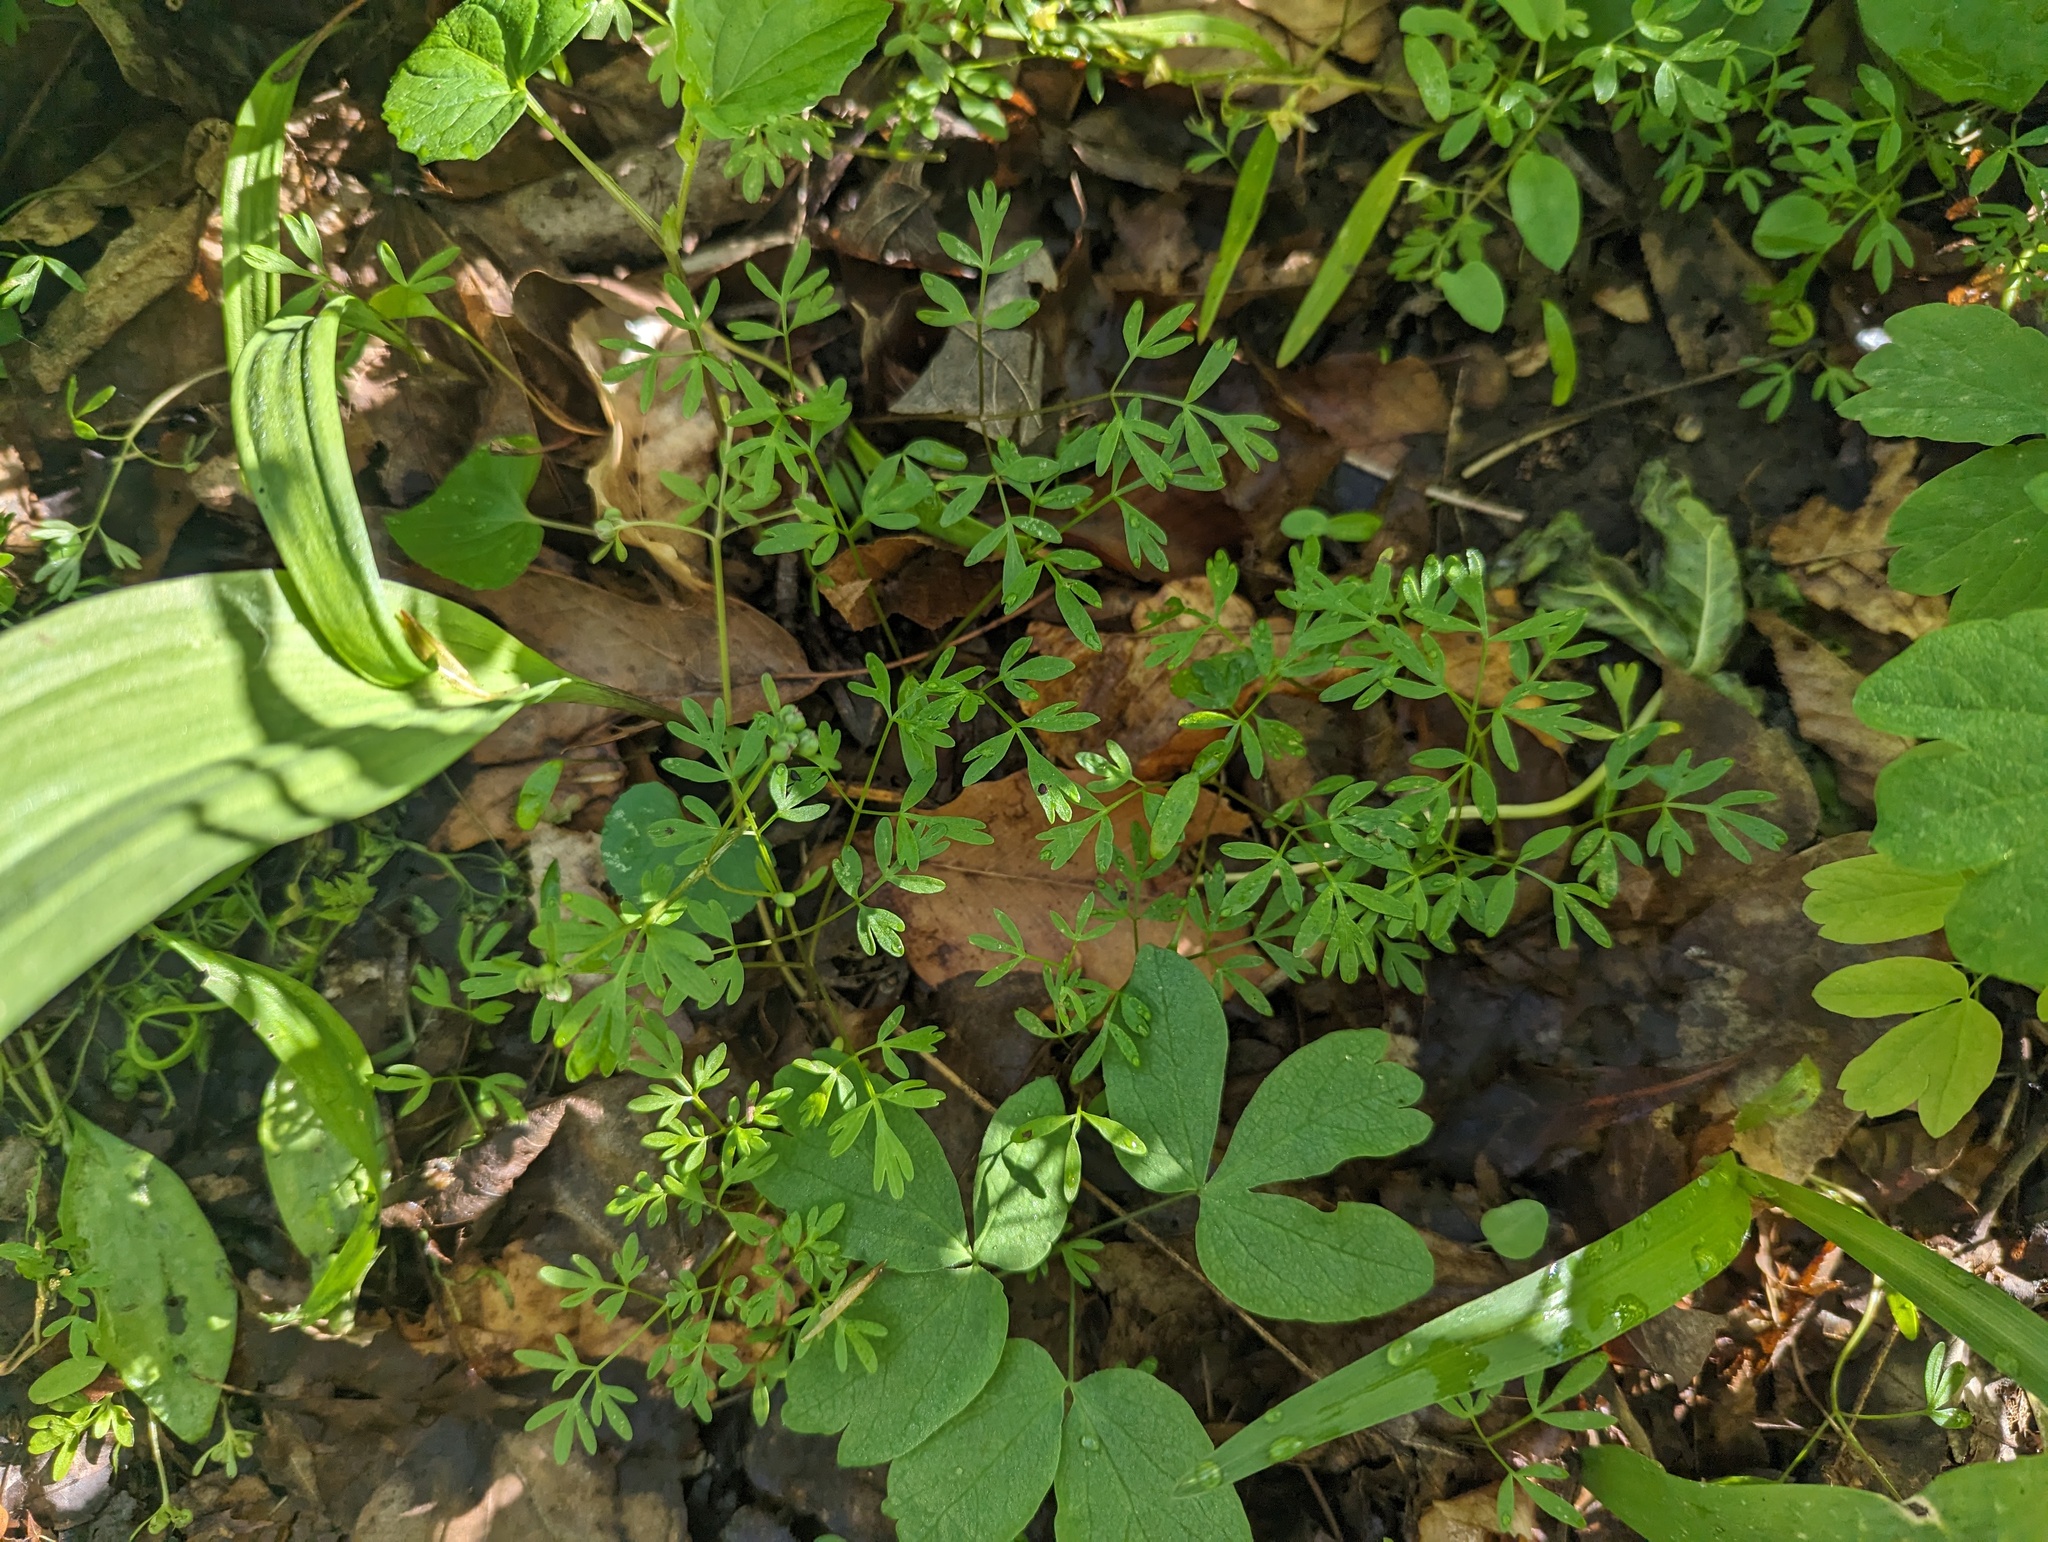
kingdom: Plantae
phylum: Tracheophyta
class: Magnoliopsida
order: Apiales
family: Apiaceae
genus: Erigenia
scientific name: Erigenia bulbosa
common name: Pepper-and-salt
